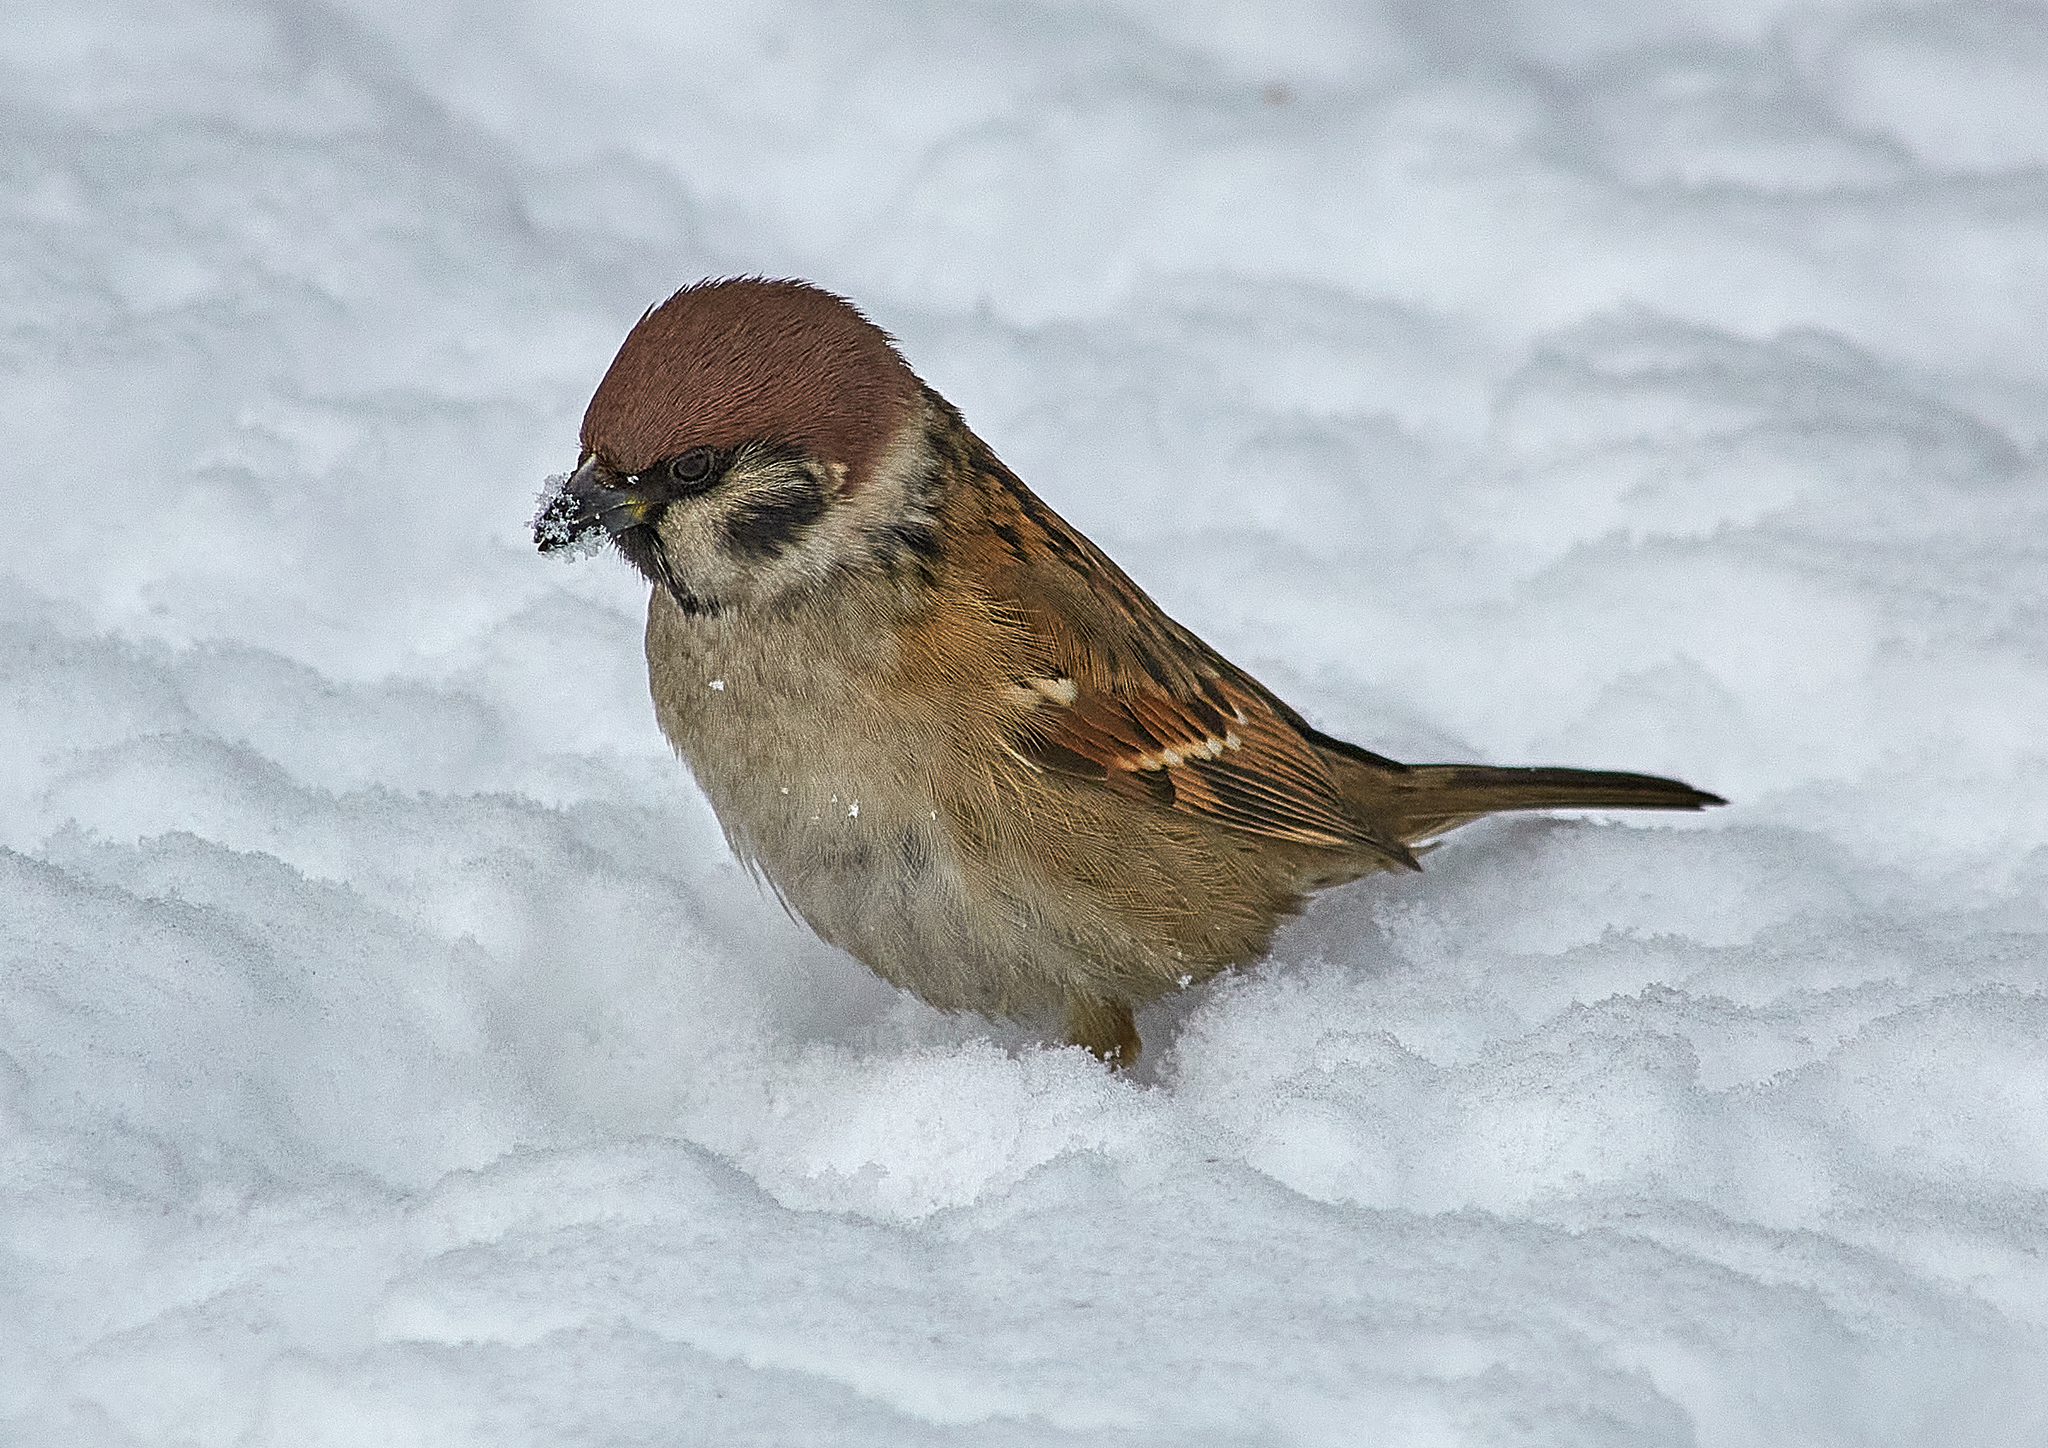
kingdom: Animalia
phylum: Chordata
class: Aves
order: Passeriformes
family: Passeridae
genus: Passer
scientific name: Passer montanus
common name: Eurasian tree sparrow
